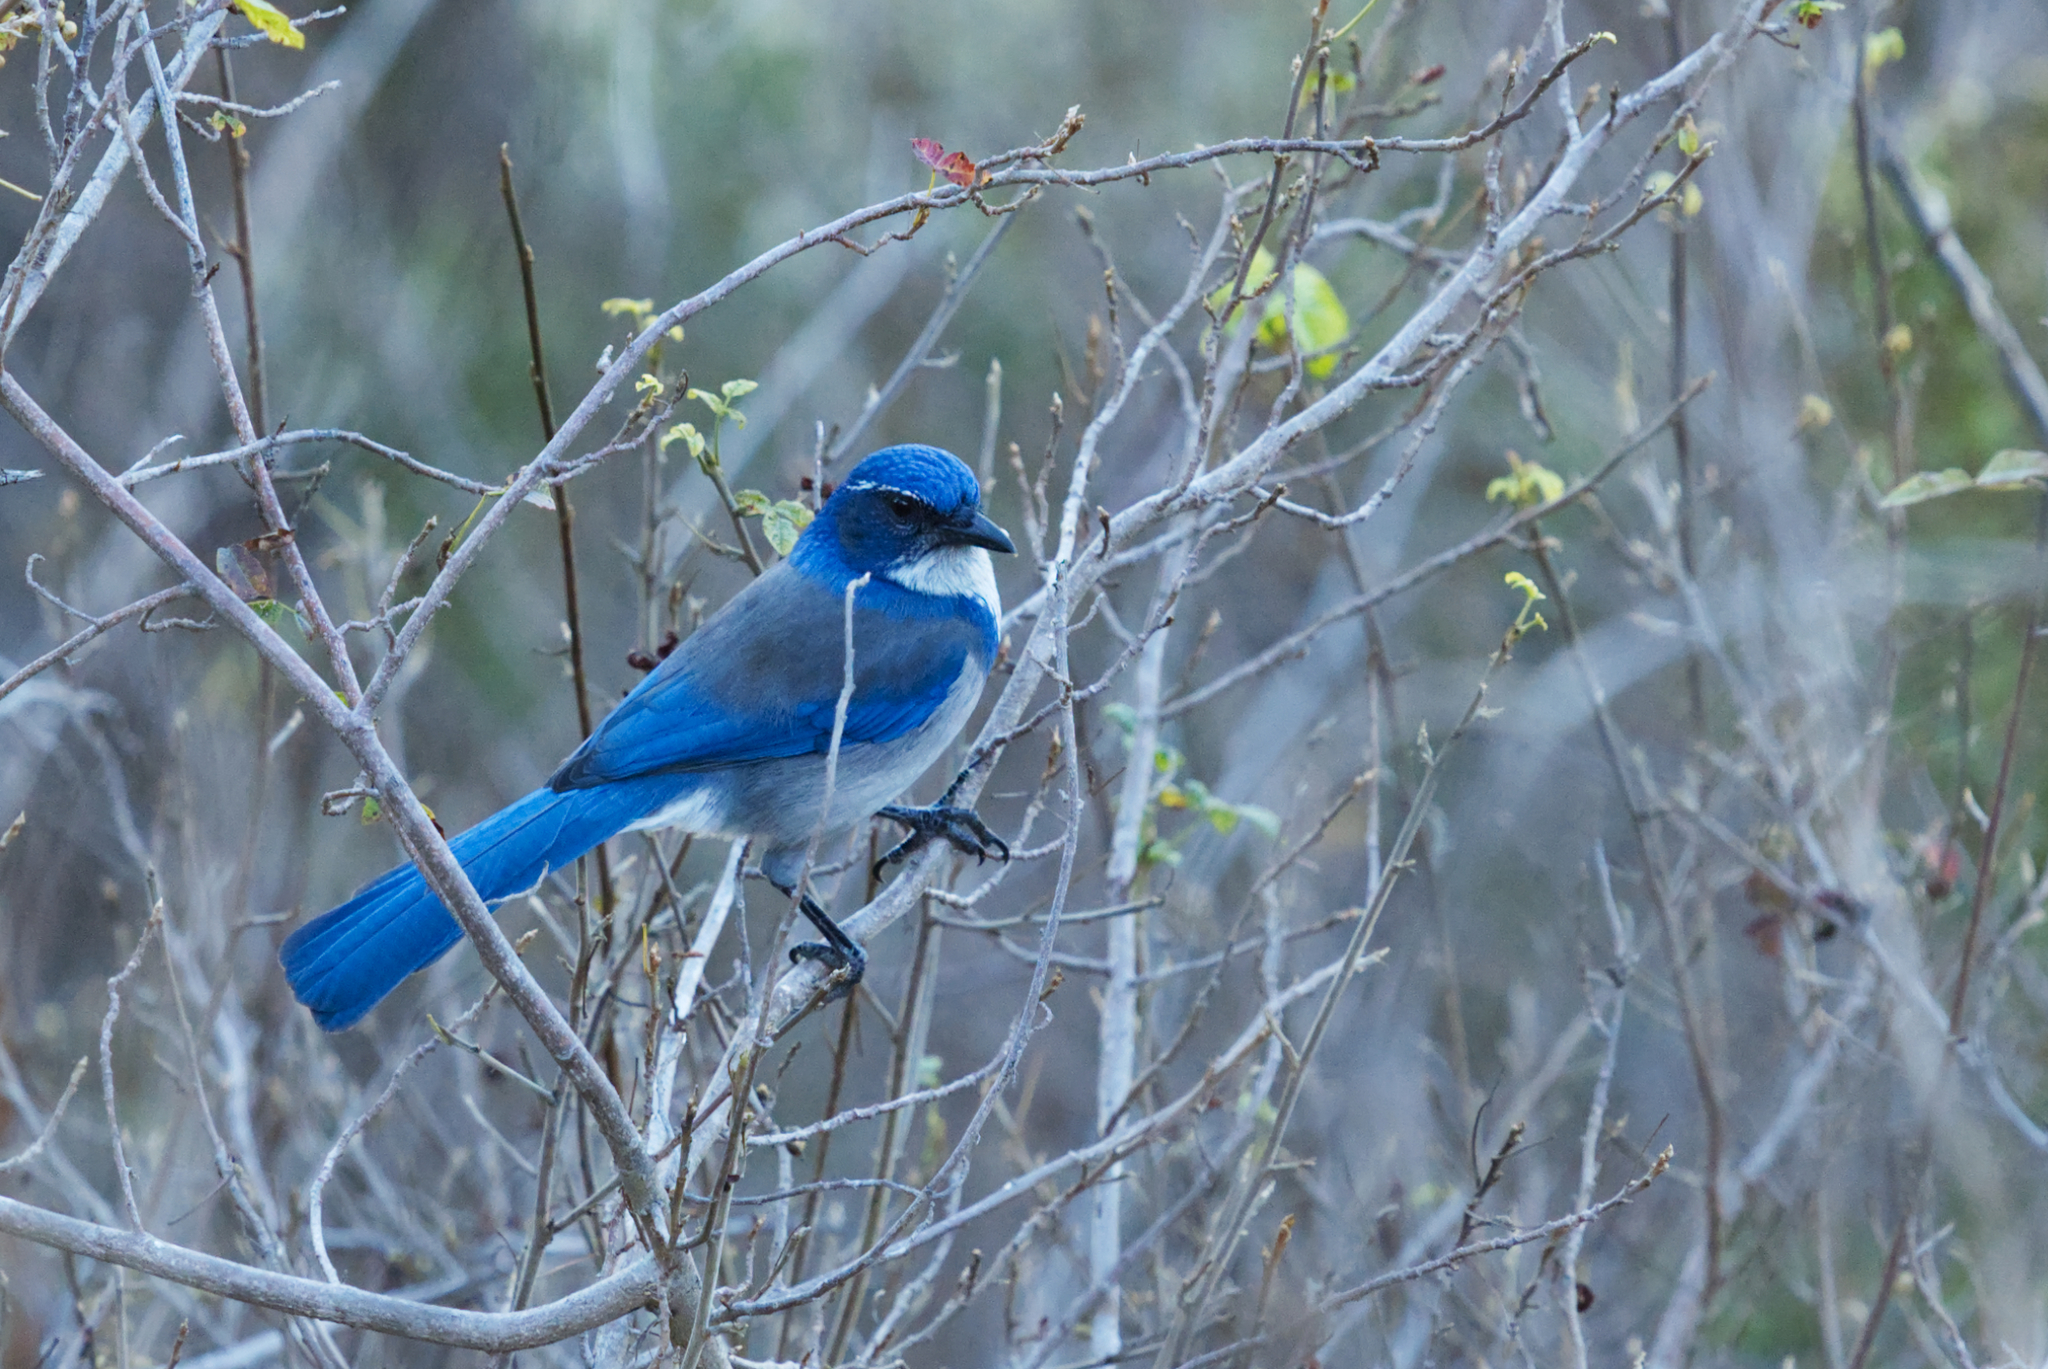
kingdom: Animalia
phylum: Chordata
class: Aves
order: Passeriformes
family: Corvidae
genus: Aphelocoma
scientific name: Aphelocoma californica
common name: California scrub-jay
